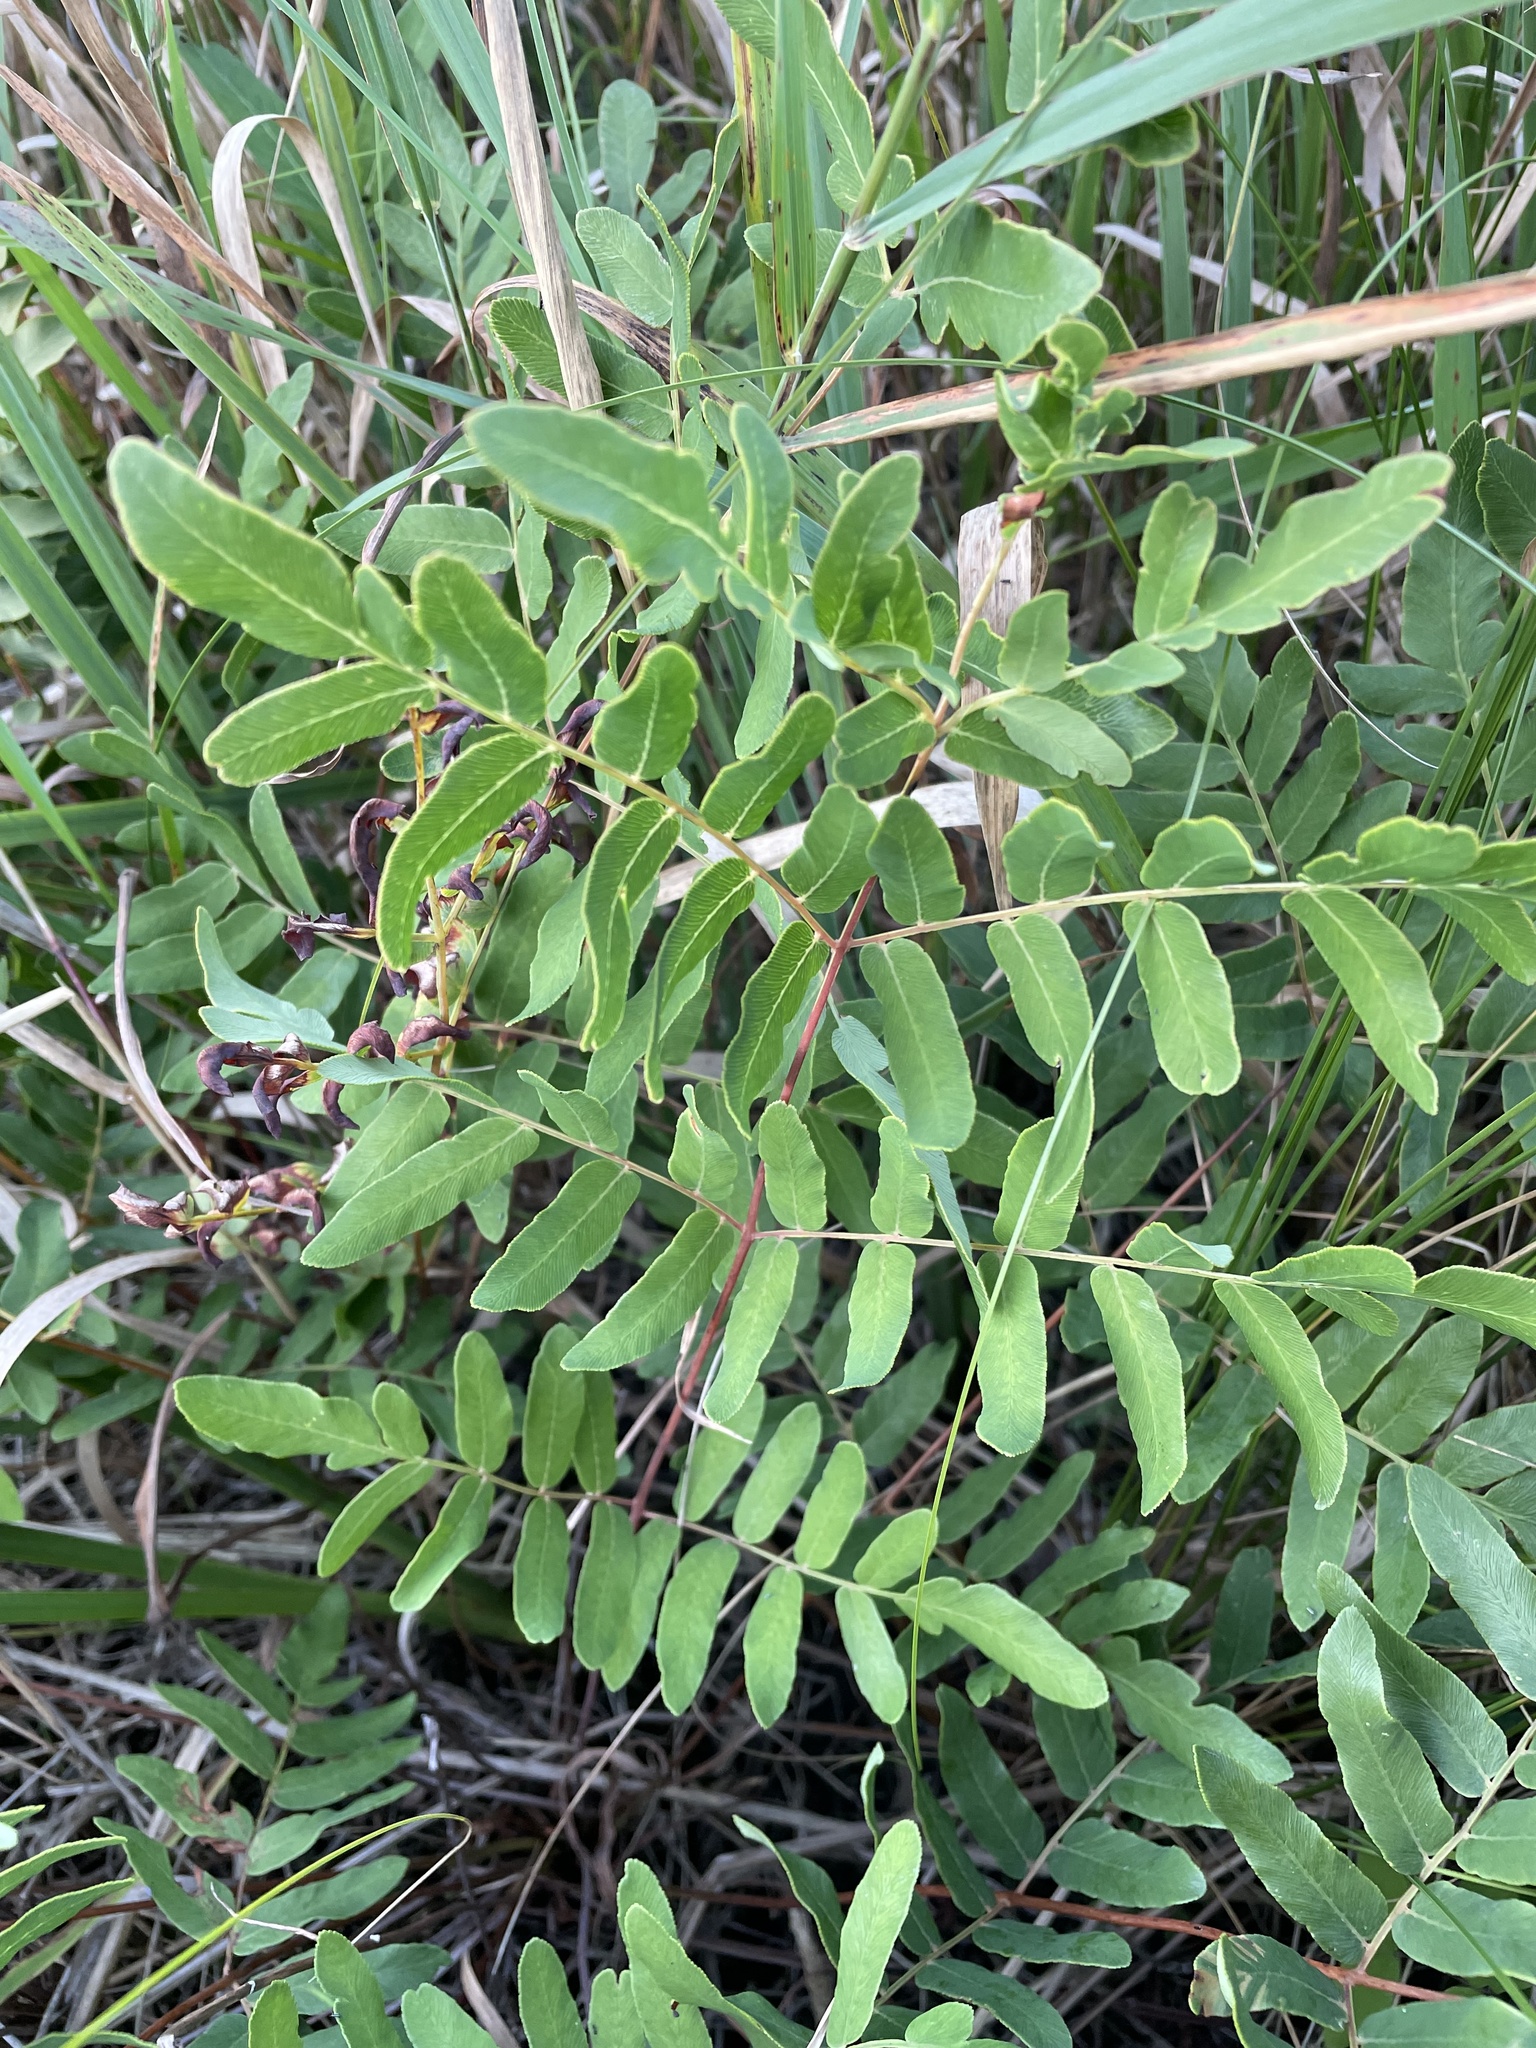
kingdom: Plantae
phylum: Tracheophyta
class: Polypodiopsida
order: Osmundales
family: Osmundaceae
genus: Osmunda
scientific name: Osmunda spectabilis
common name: American royal fern
